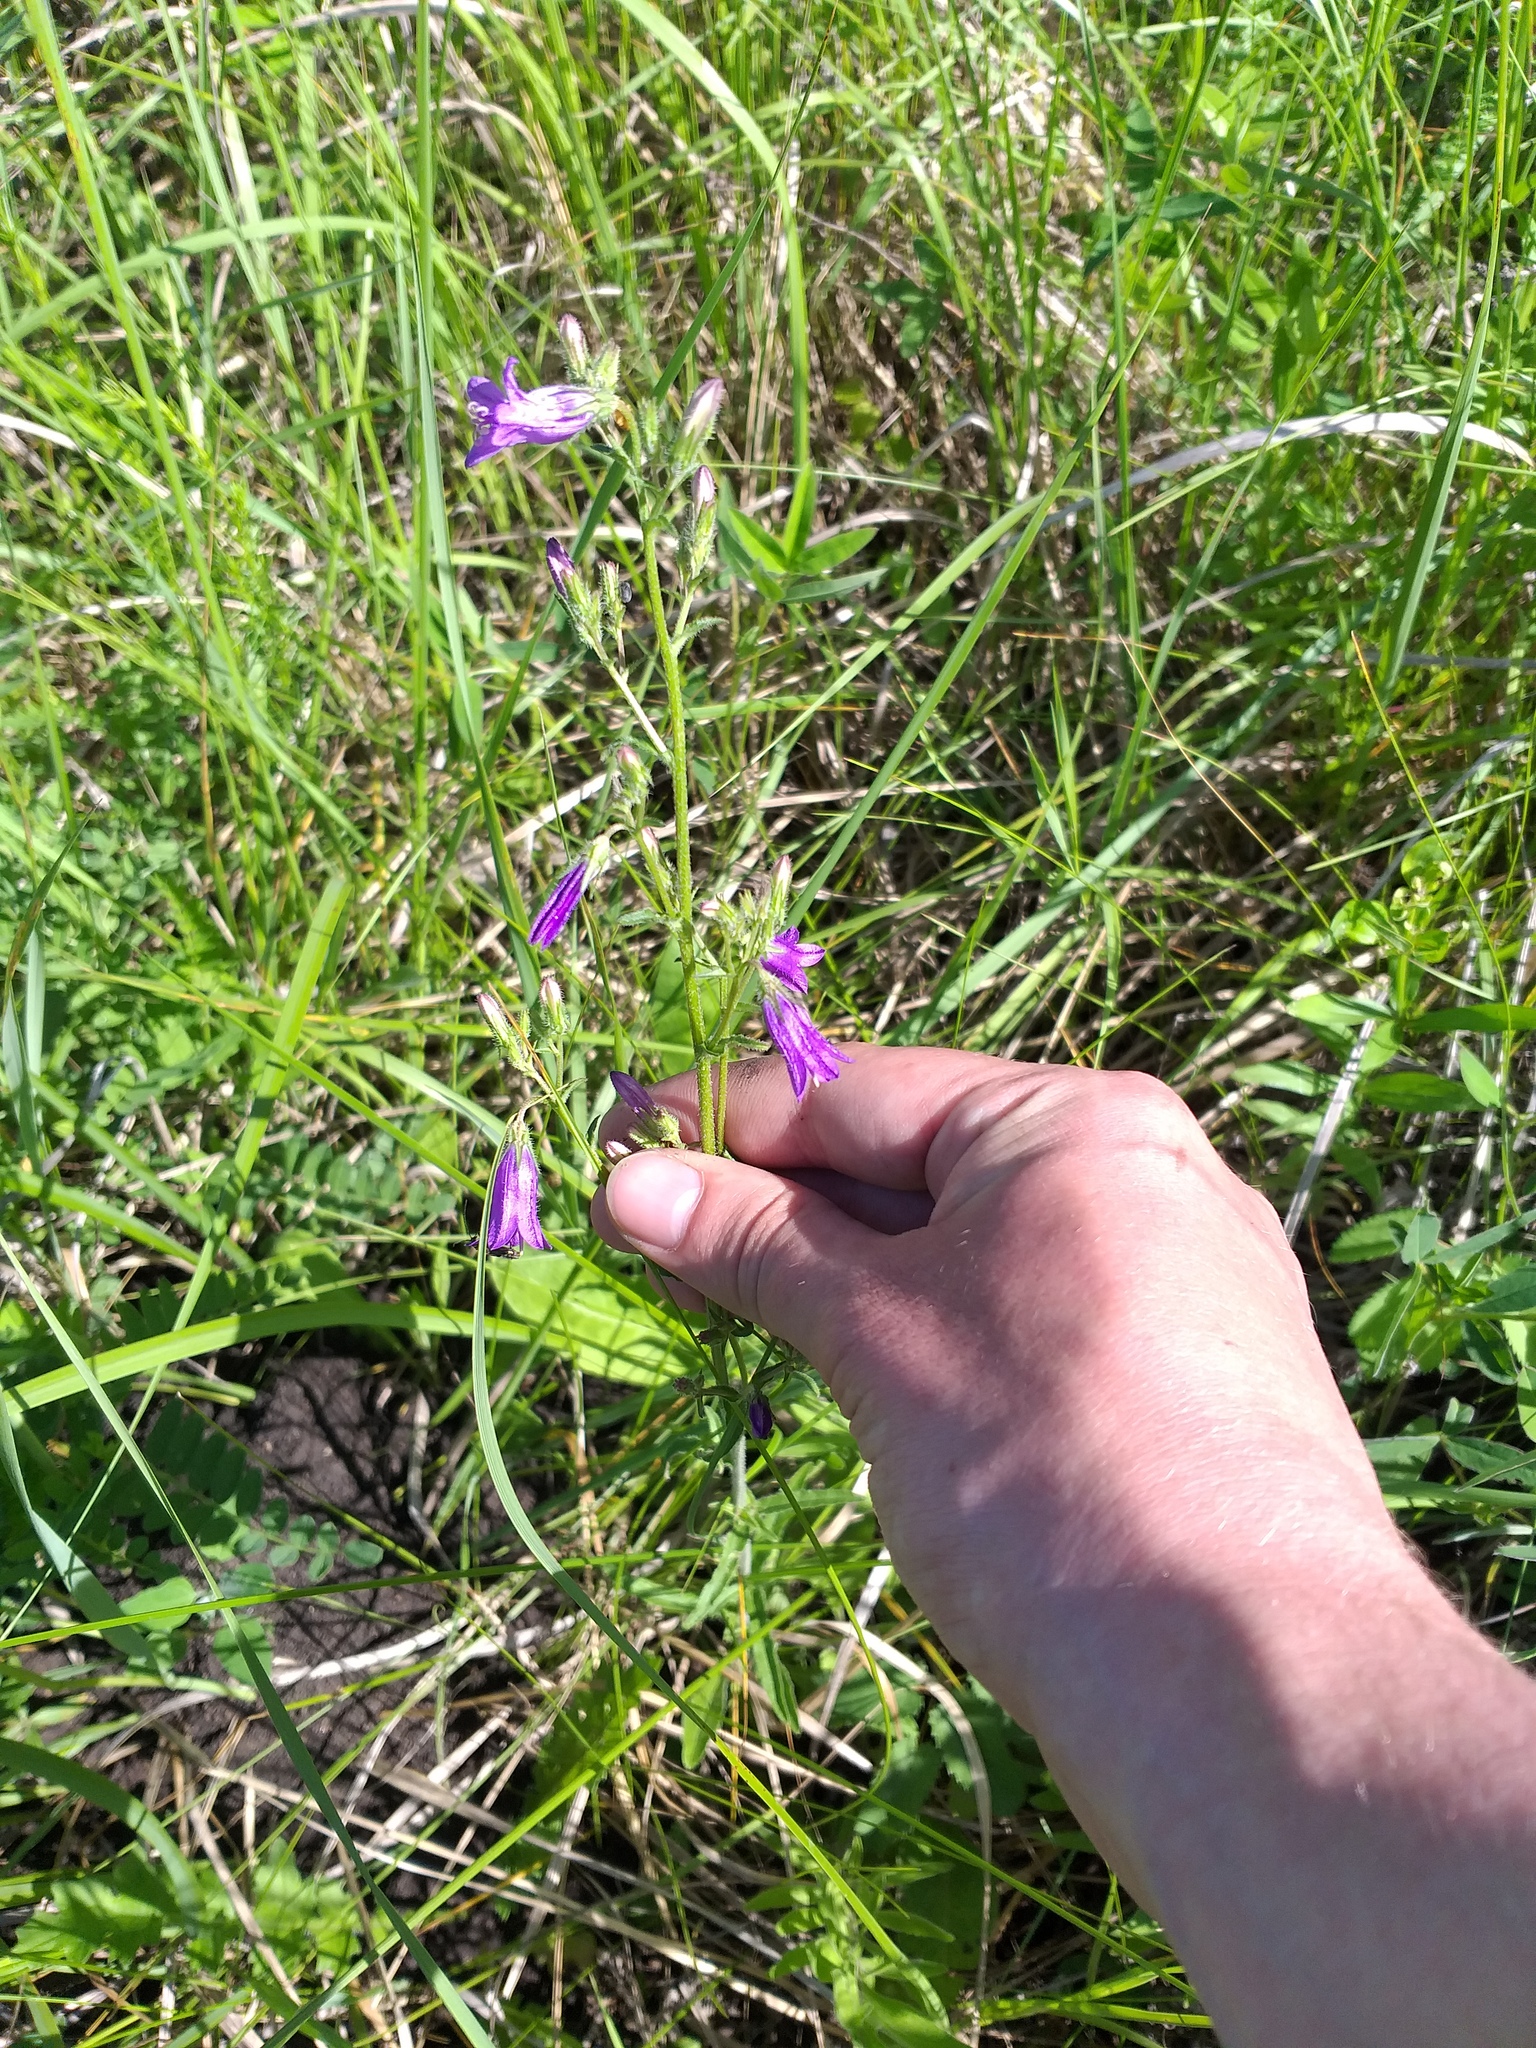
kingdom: Plantae
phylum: Tracheophyta
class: Magnoliopsida
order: Asterales
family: Campanulaceae
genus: Campanula
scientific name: Campanula sibirica
